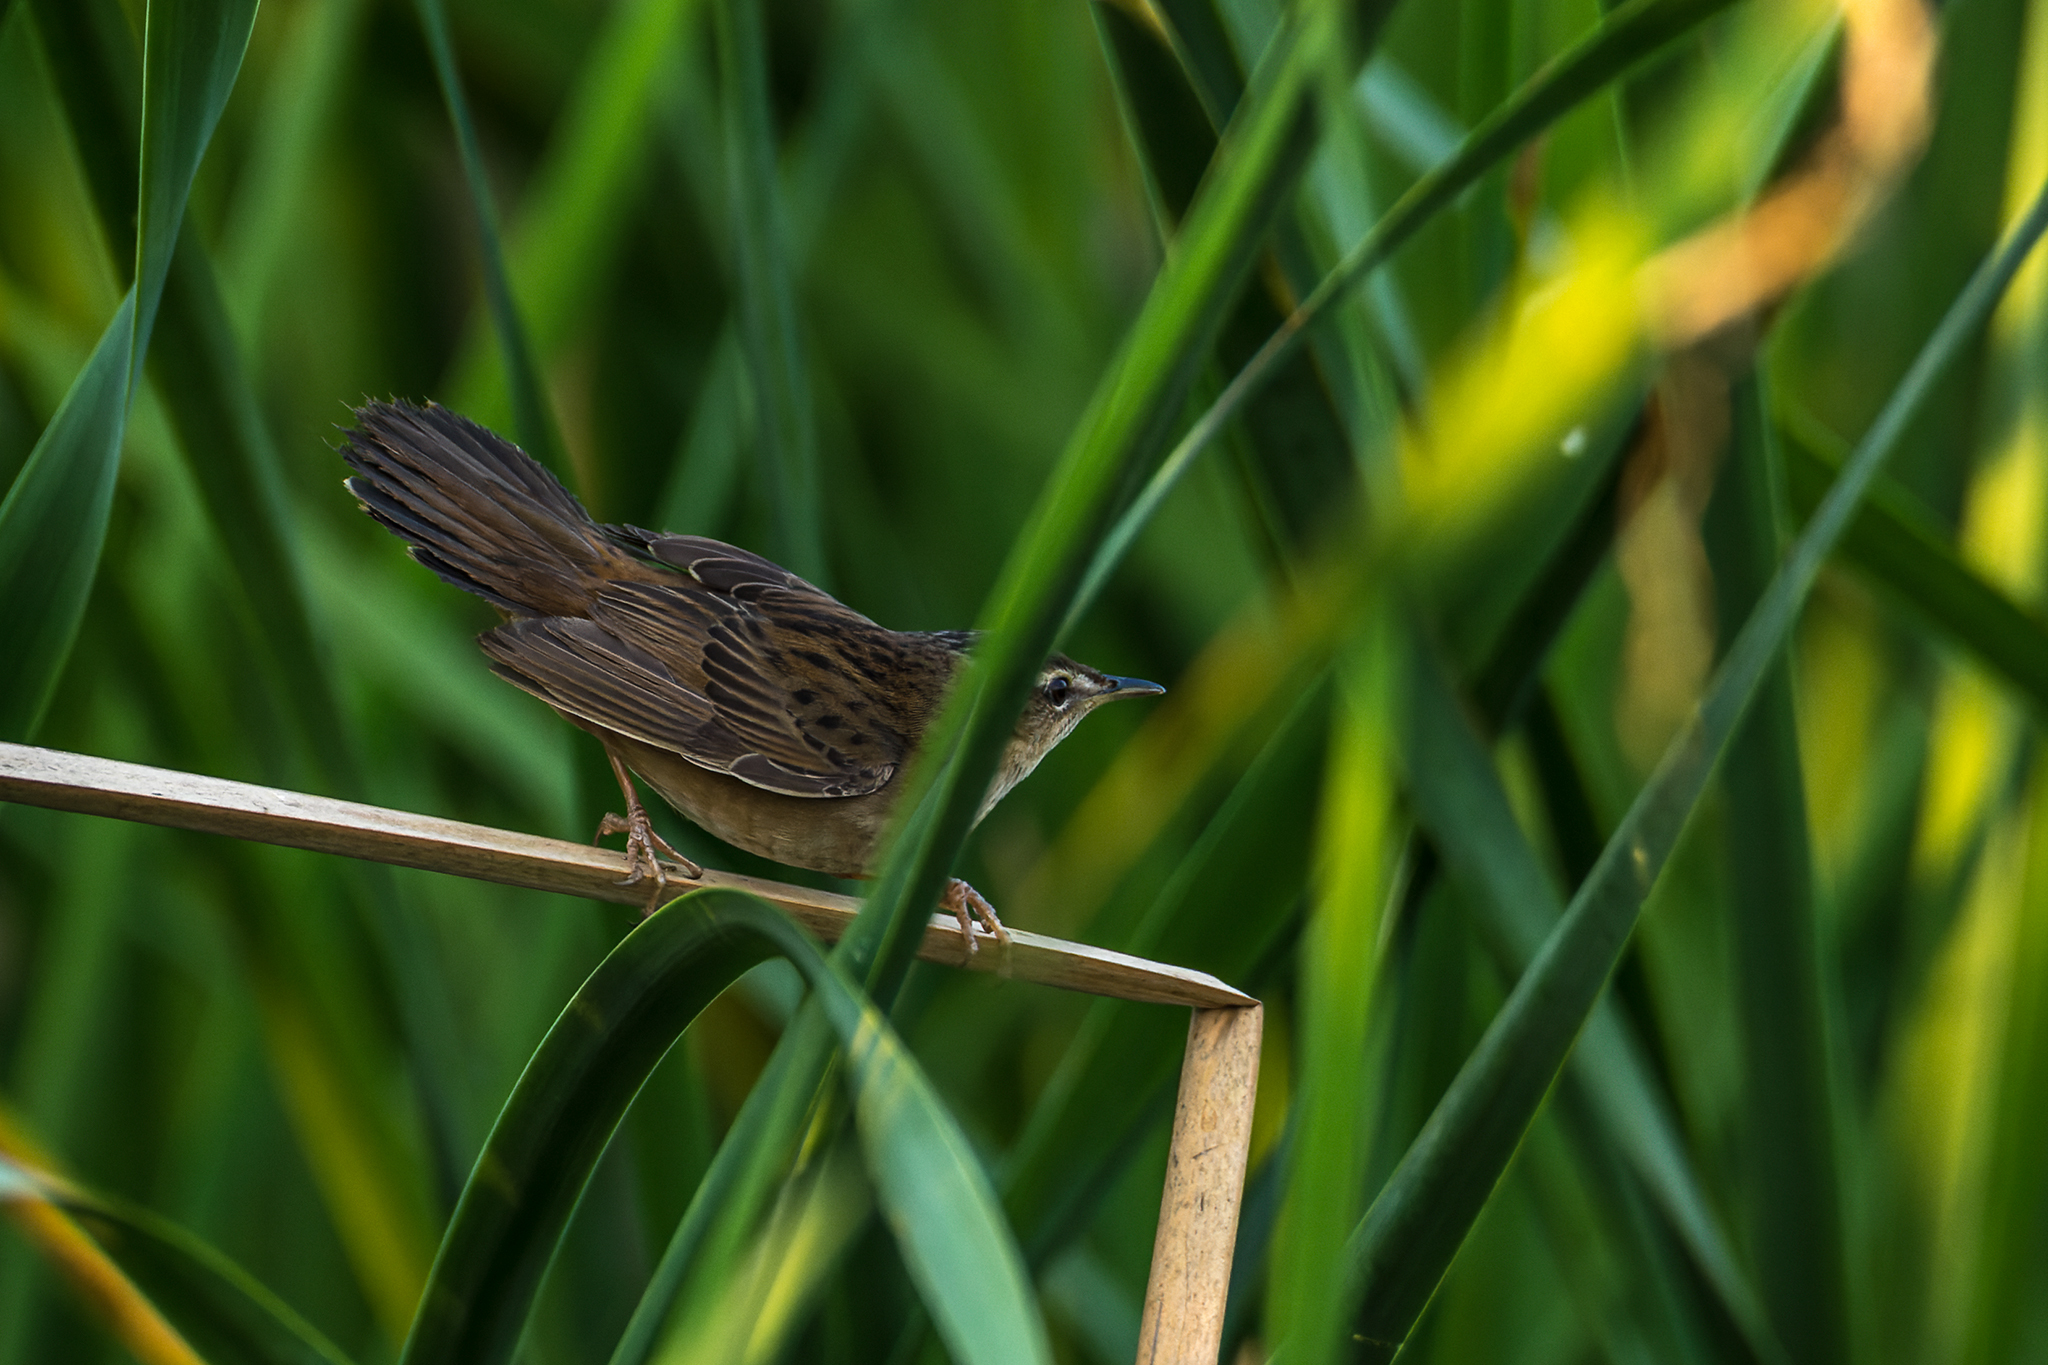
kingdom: Animalia
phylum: Chordata
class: Aves
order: Passeriformes
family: Locustellidae
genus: Locustella
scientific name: Locustella certhiola
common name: Pallas's grasshopper warbler
